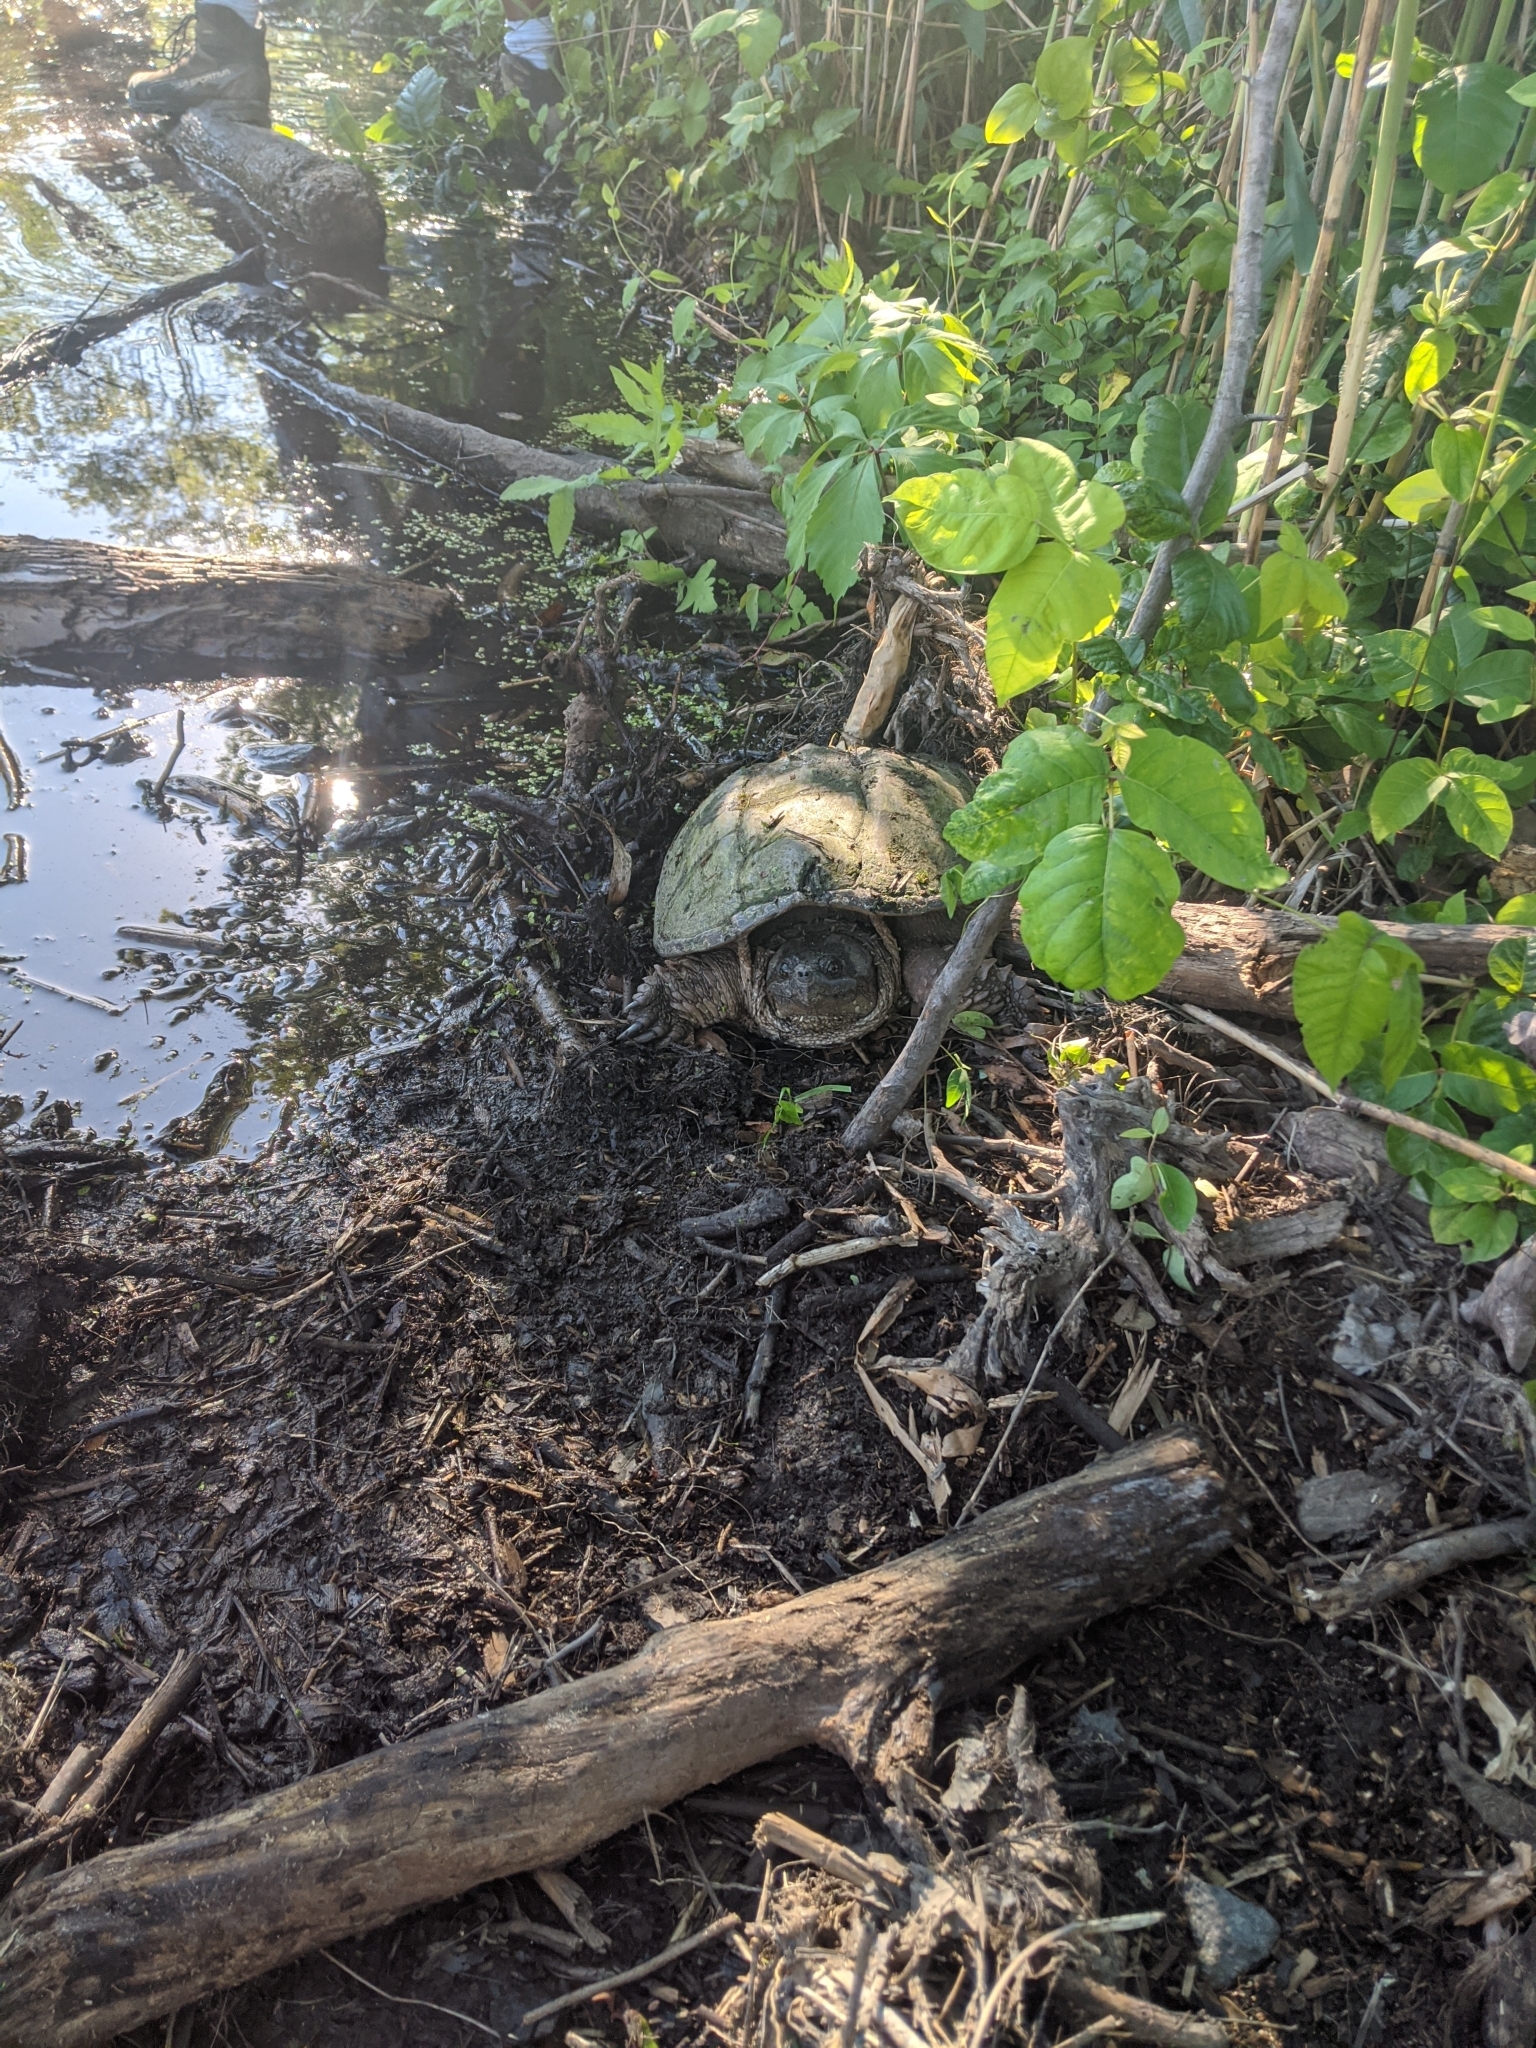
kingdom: Animalia
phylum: Chordata
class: Testudines
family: Chelydridae
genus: Chelydra
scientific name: Chelydra serpentina
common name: Common snapping turtle
